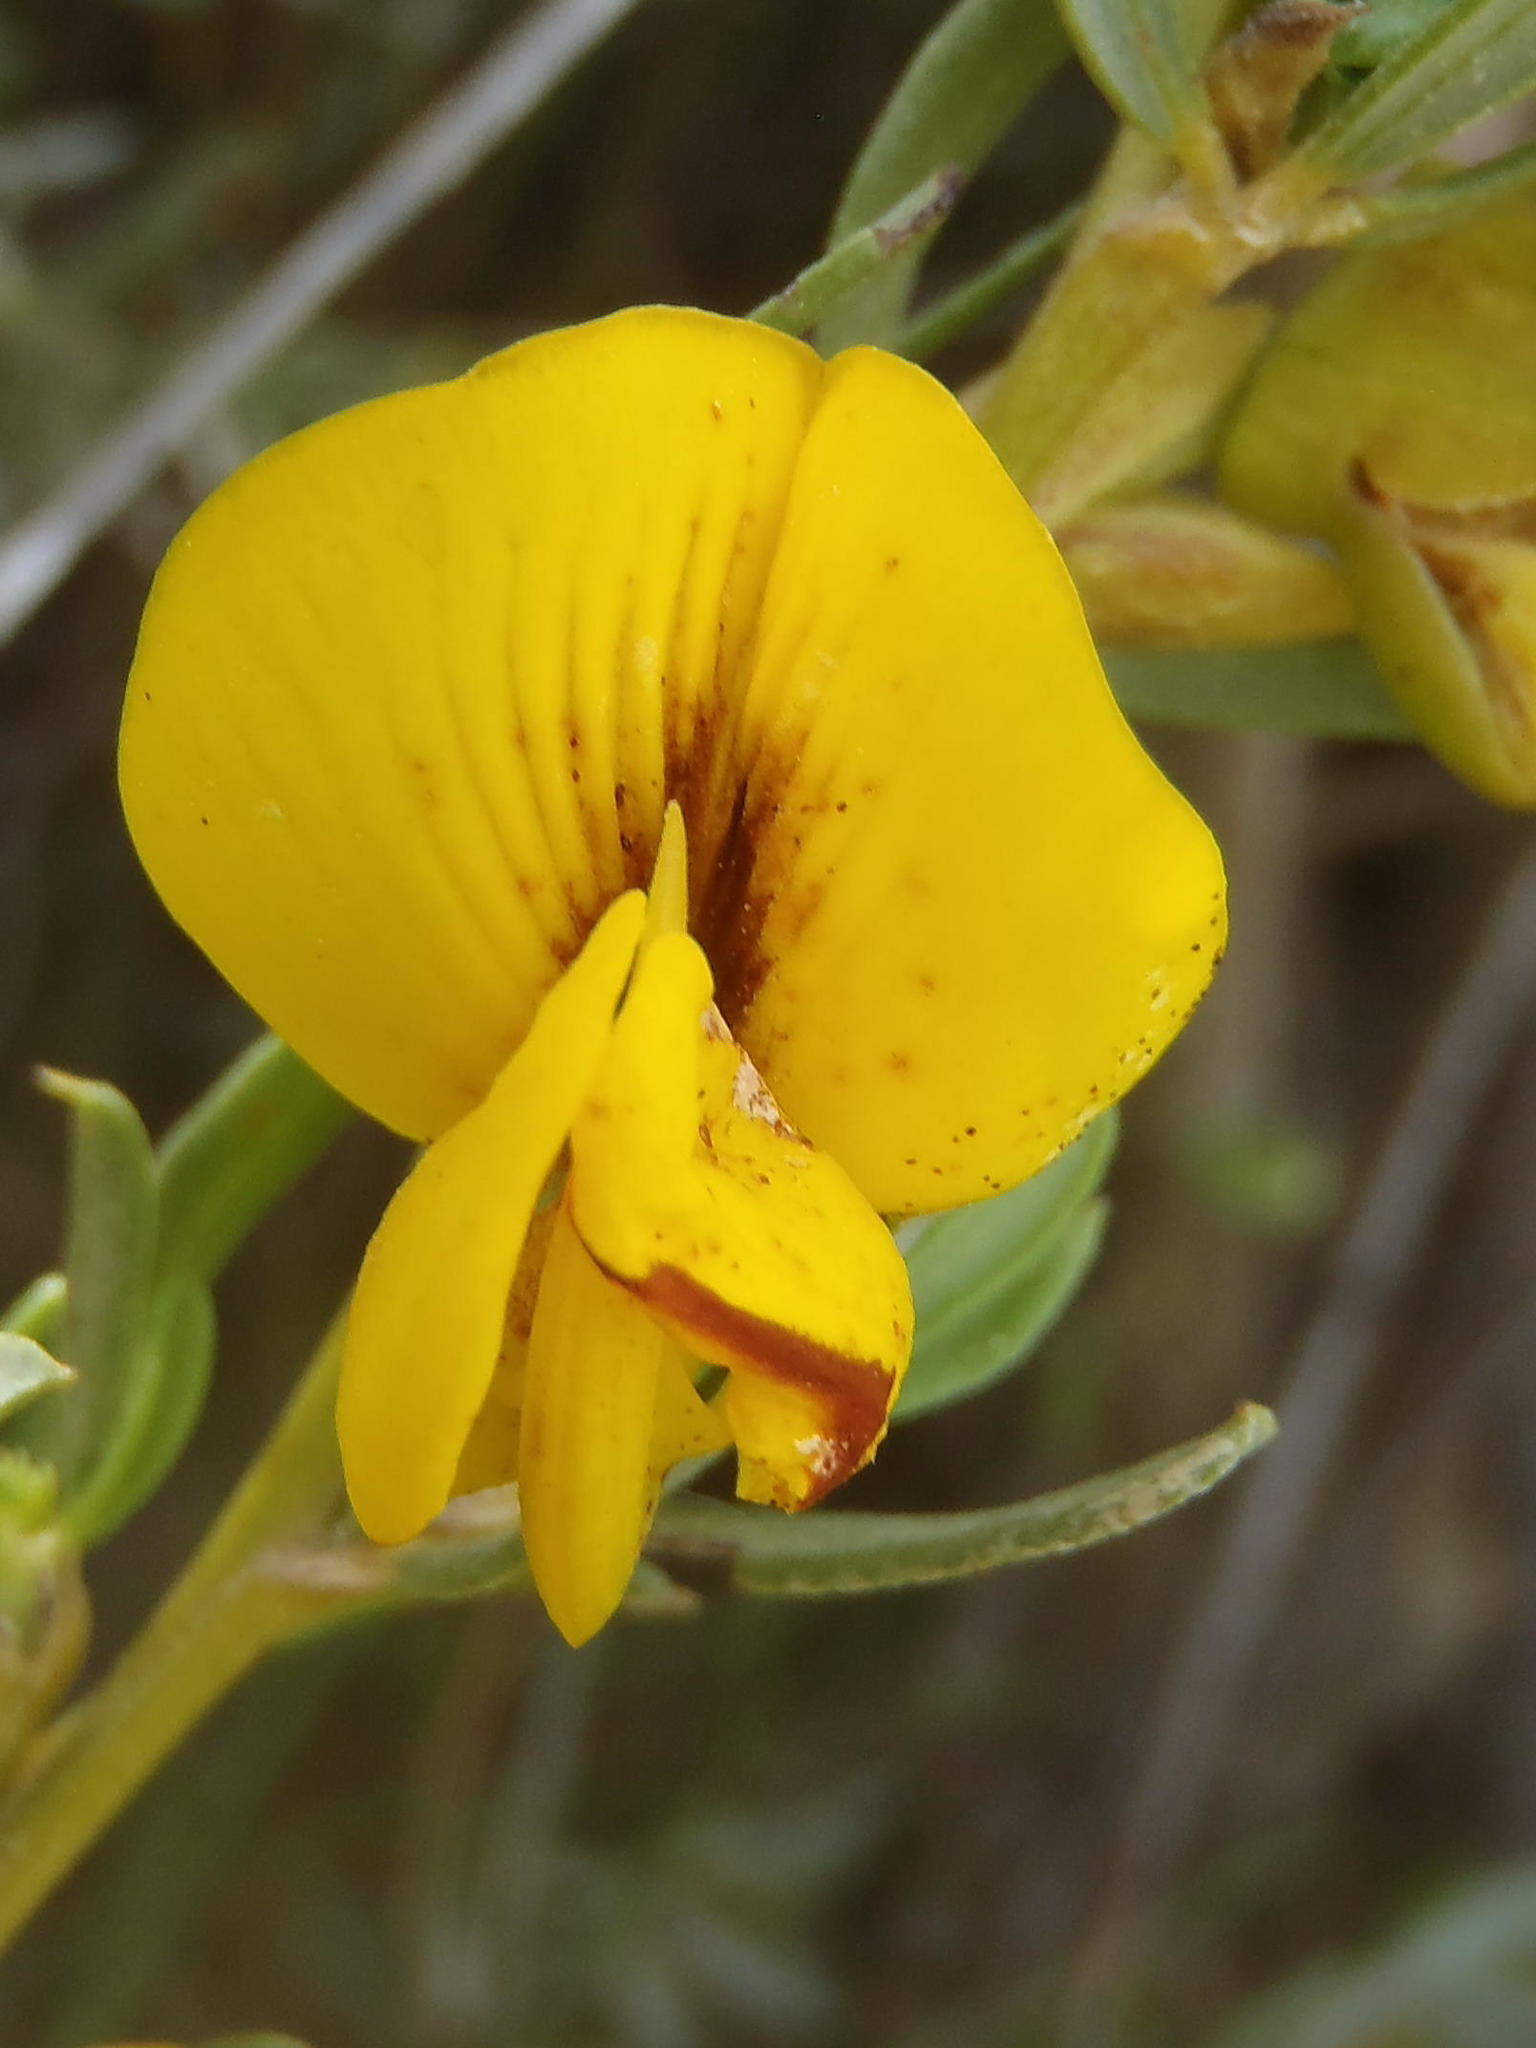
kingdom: Plantae
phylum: Tracheophyta
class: Magnoliopsida
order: Fabales
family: Fabaceae
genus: Cyclopia
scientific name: Cyclopia intermedia
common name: Mountain tea
